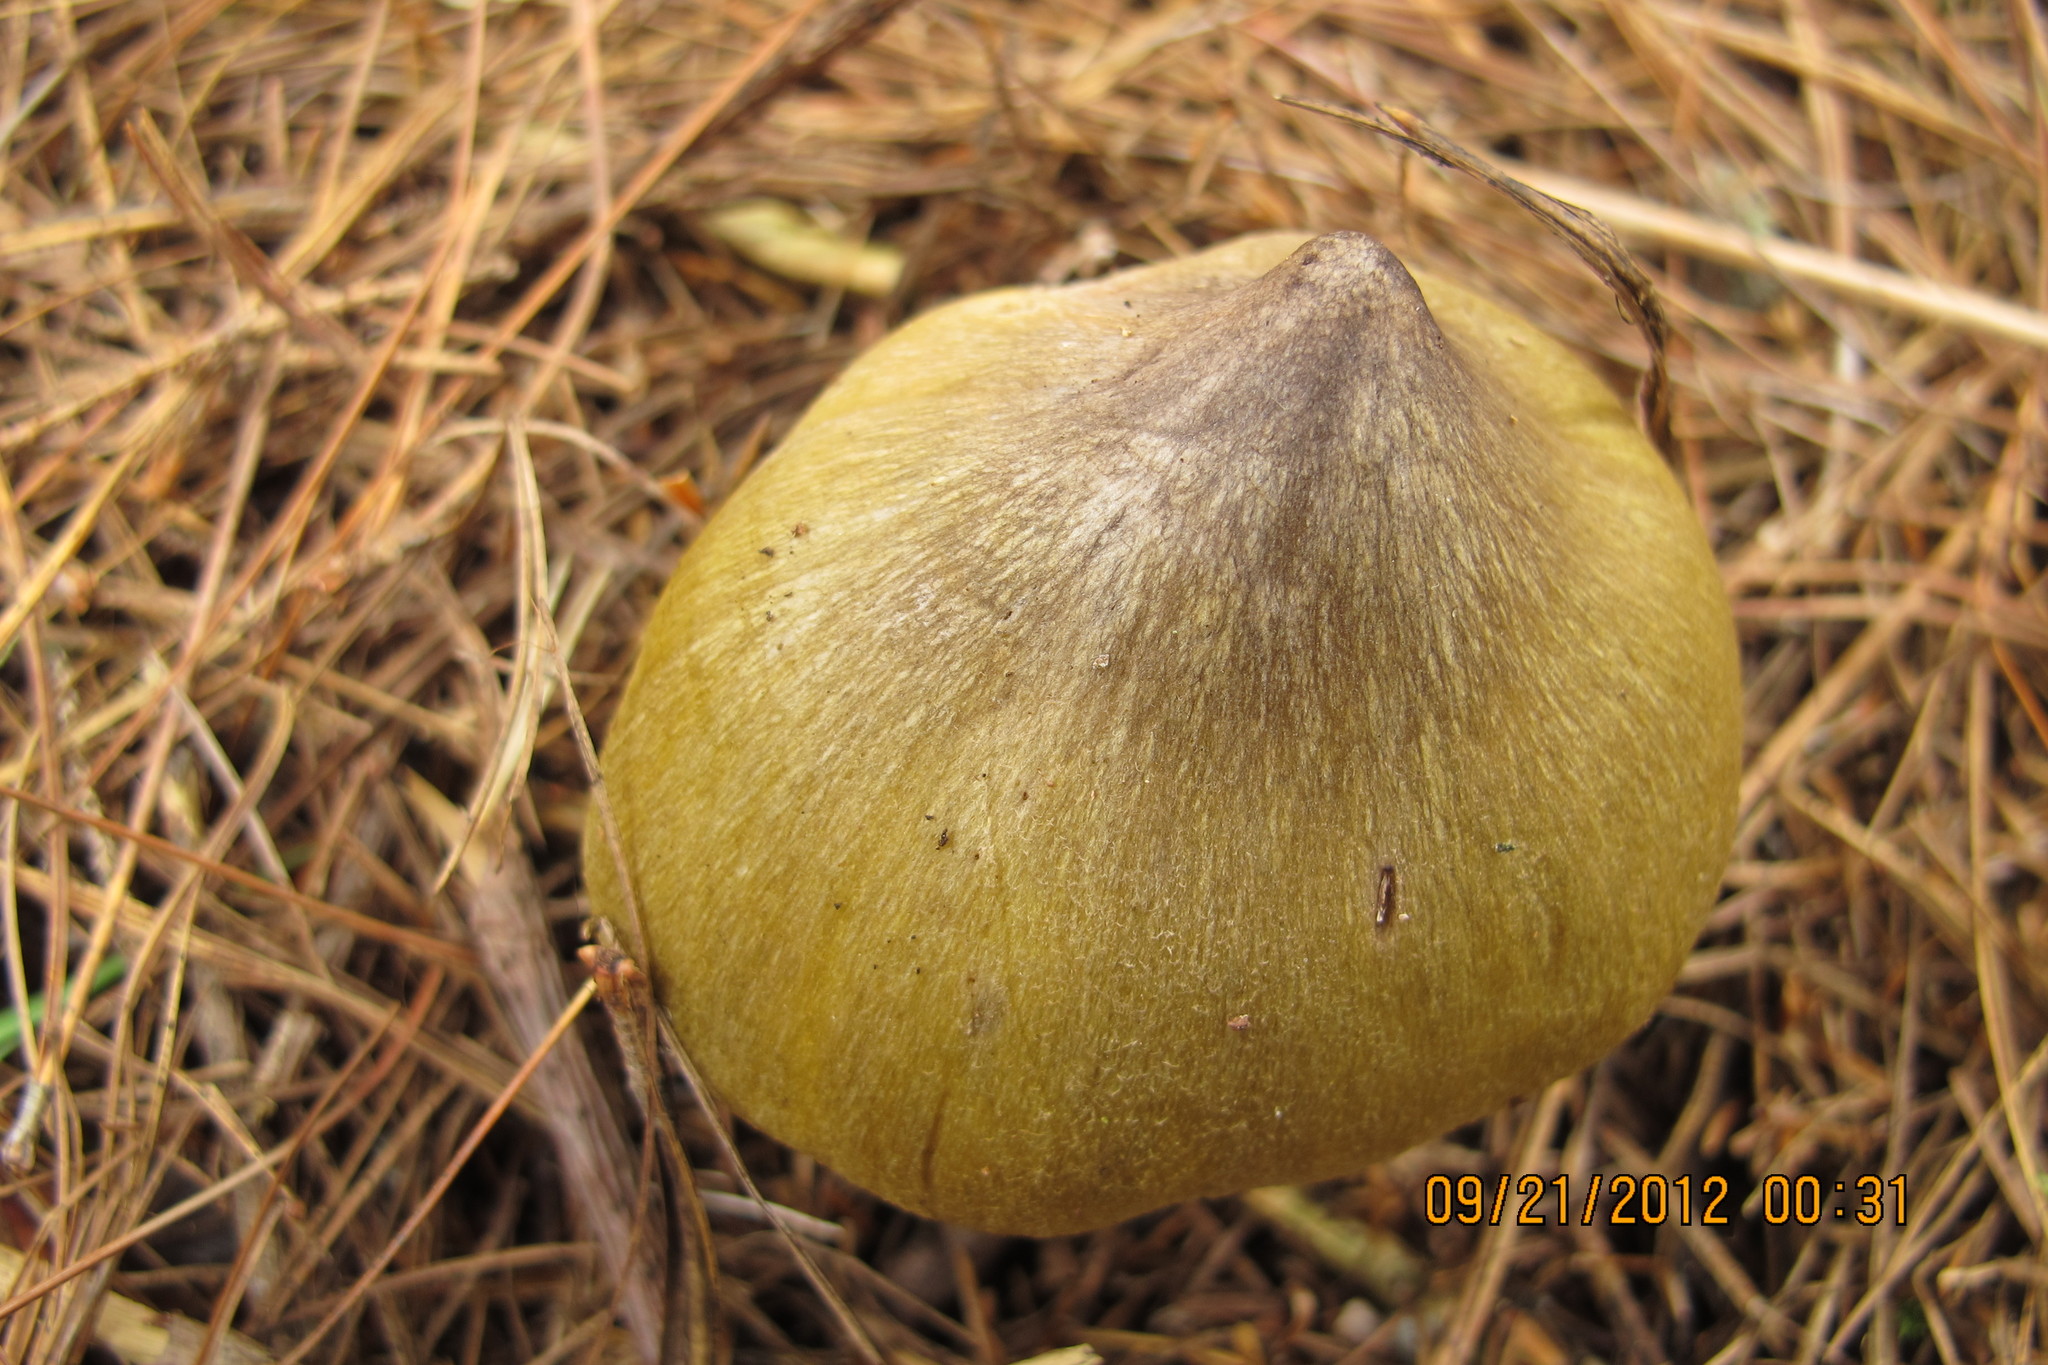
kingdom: Fungi
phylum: Basidiomycota
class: Agaricomycetes
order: Agaricales
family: Tricholomataceae
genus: Melanoleuca
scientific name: Melanoleuca davisiae
